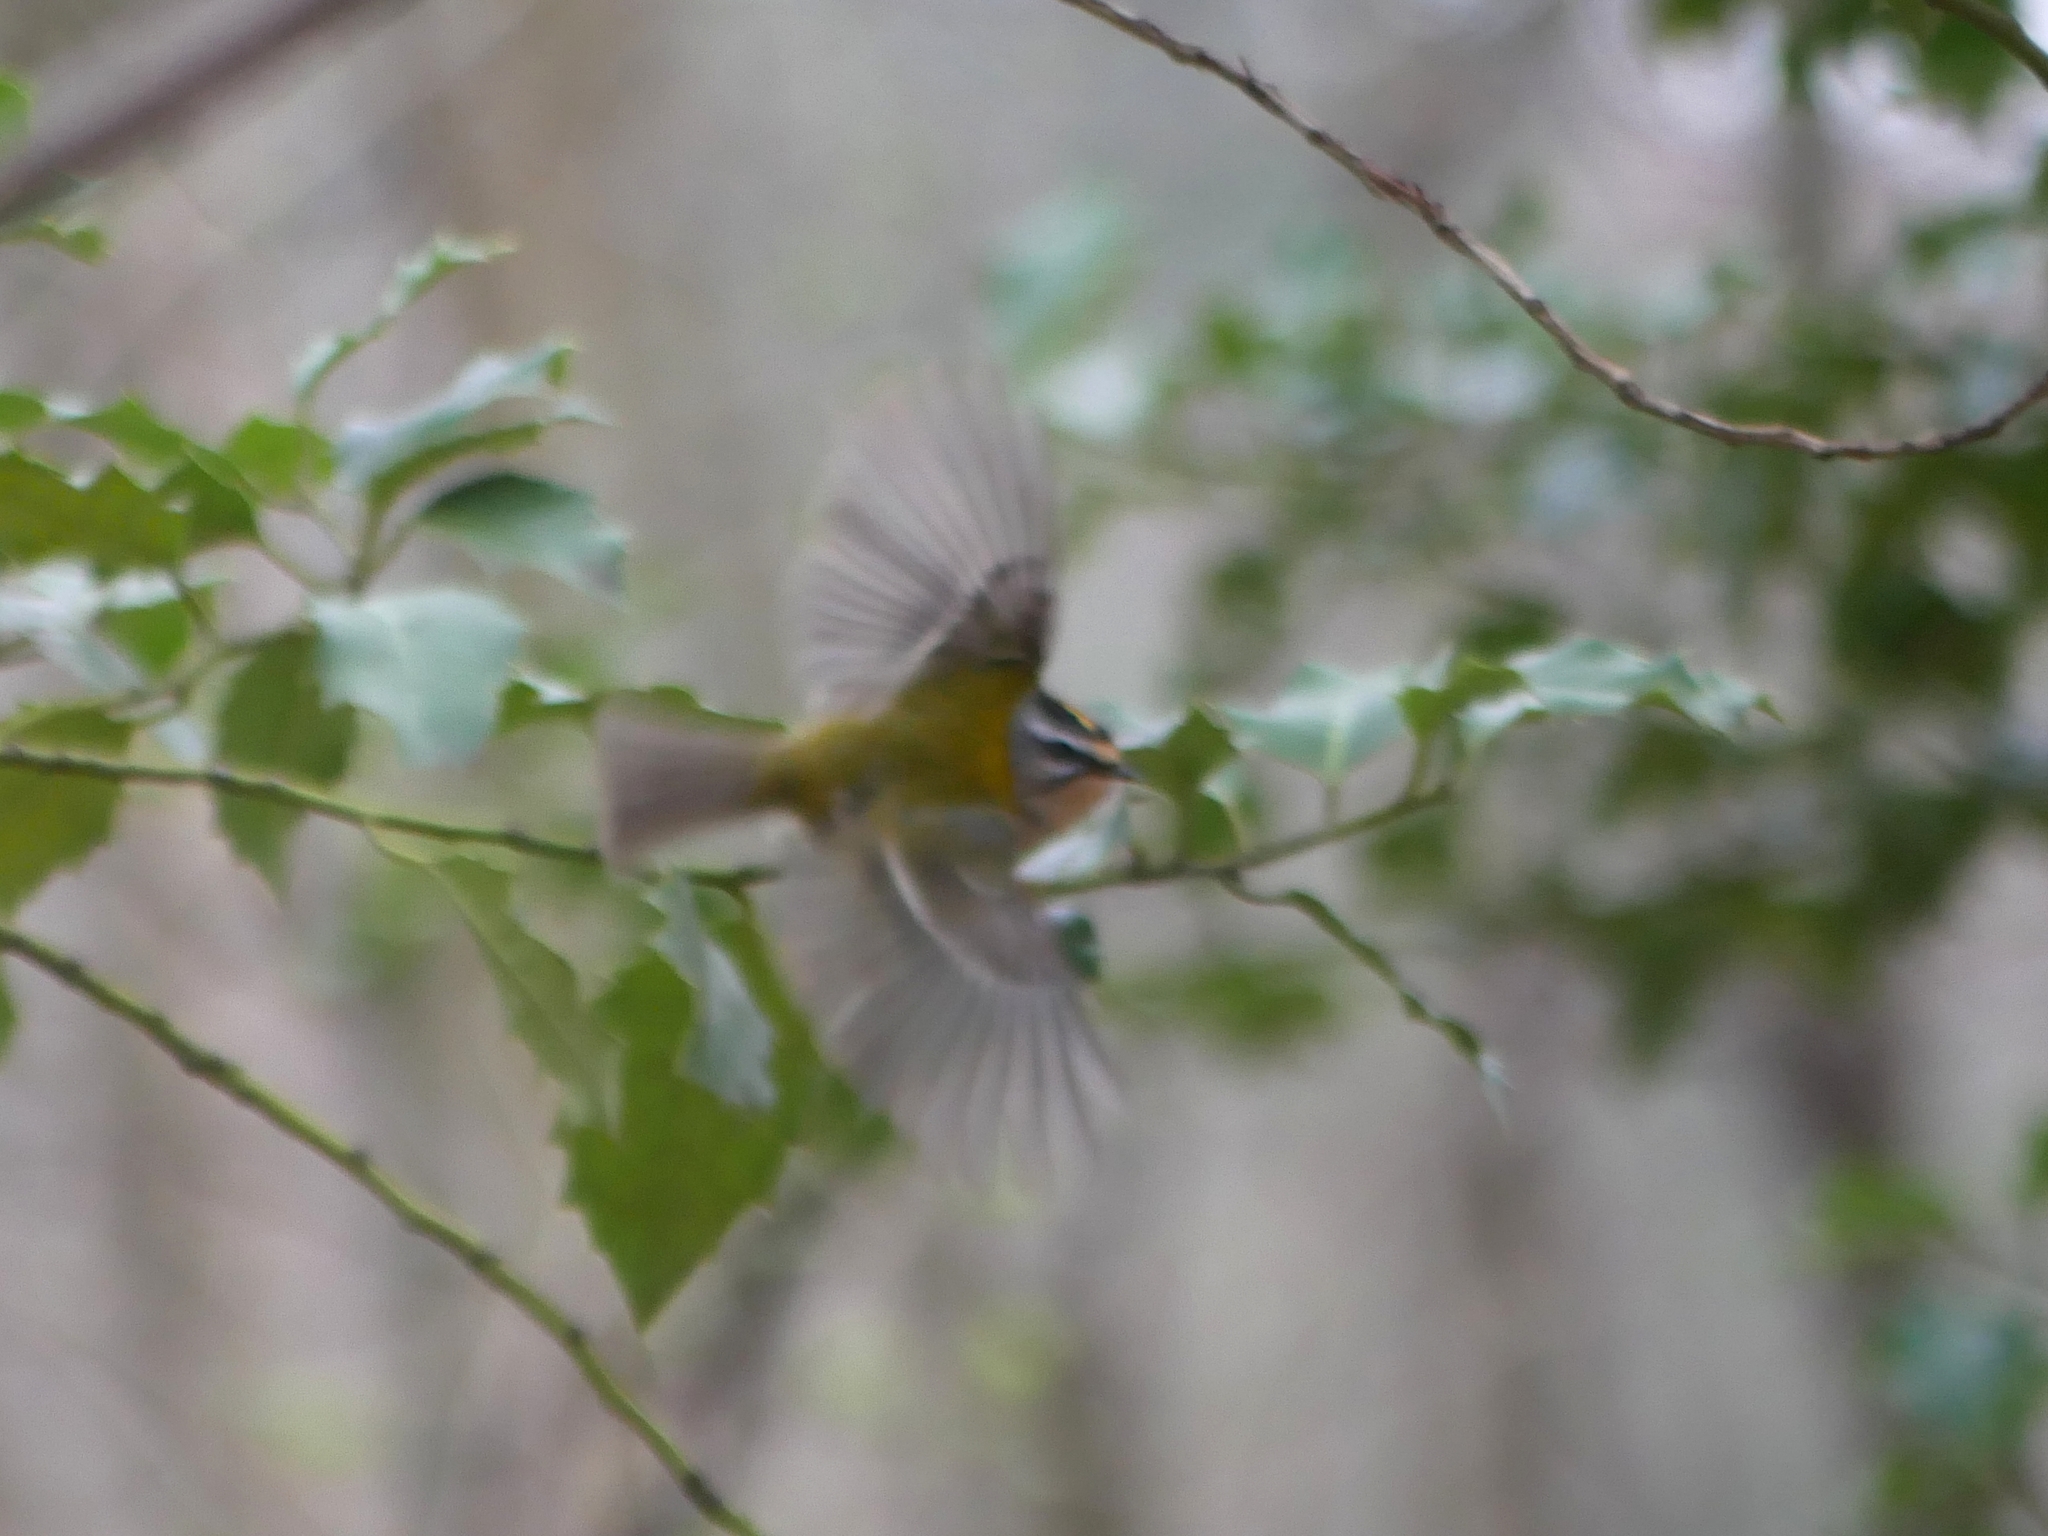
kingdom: Animalia
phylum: Chordata
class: Aves
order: Passeriformes
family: Regulidae
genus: Regulus
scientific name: Regulus ignicapilla
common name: Firecrest
